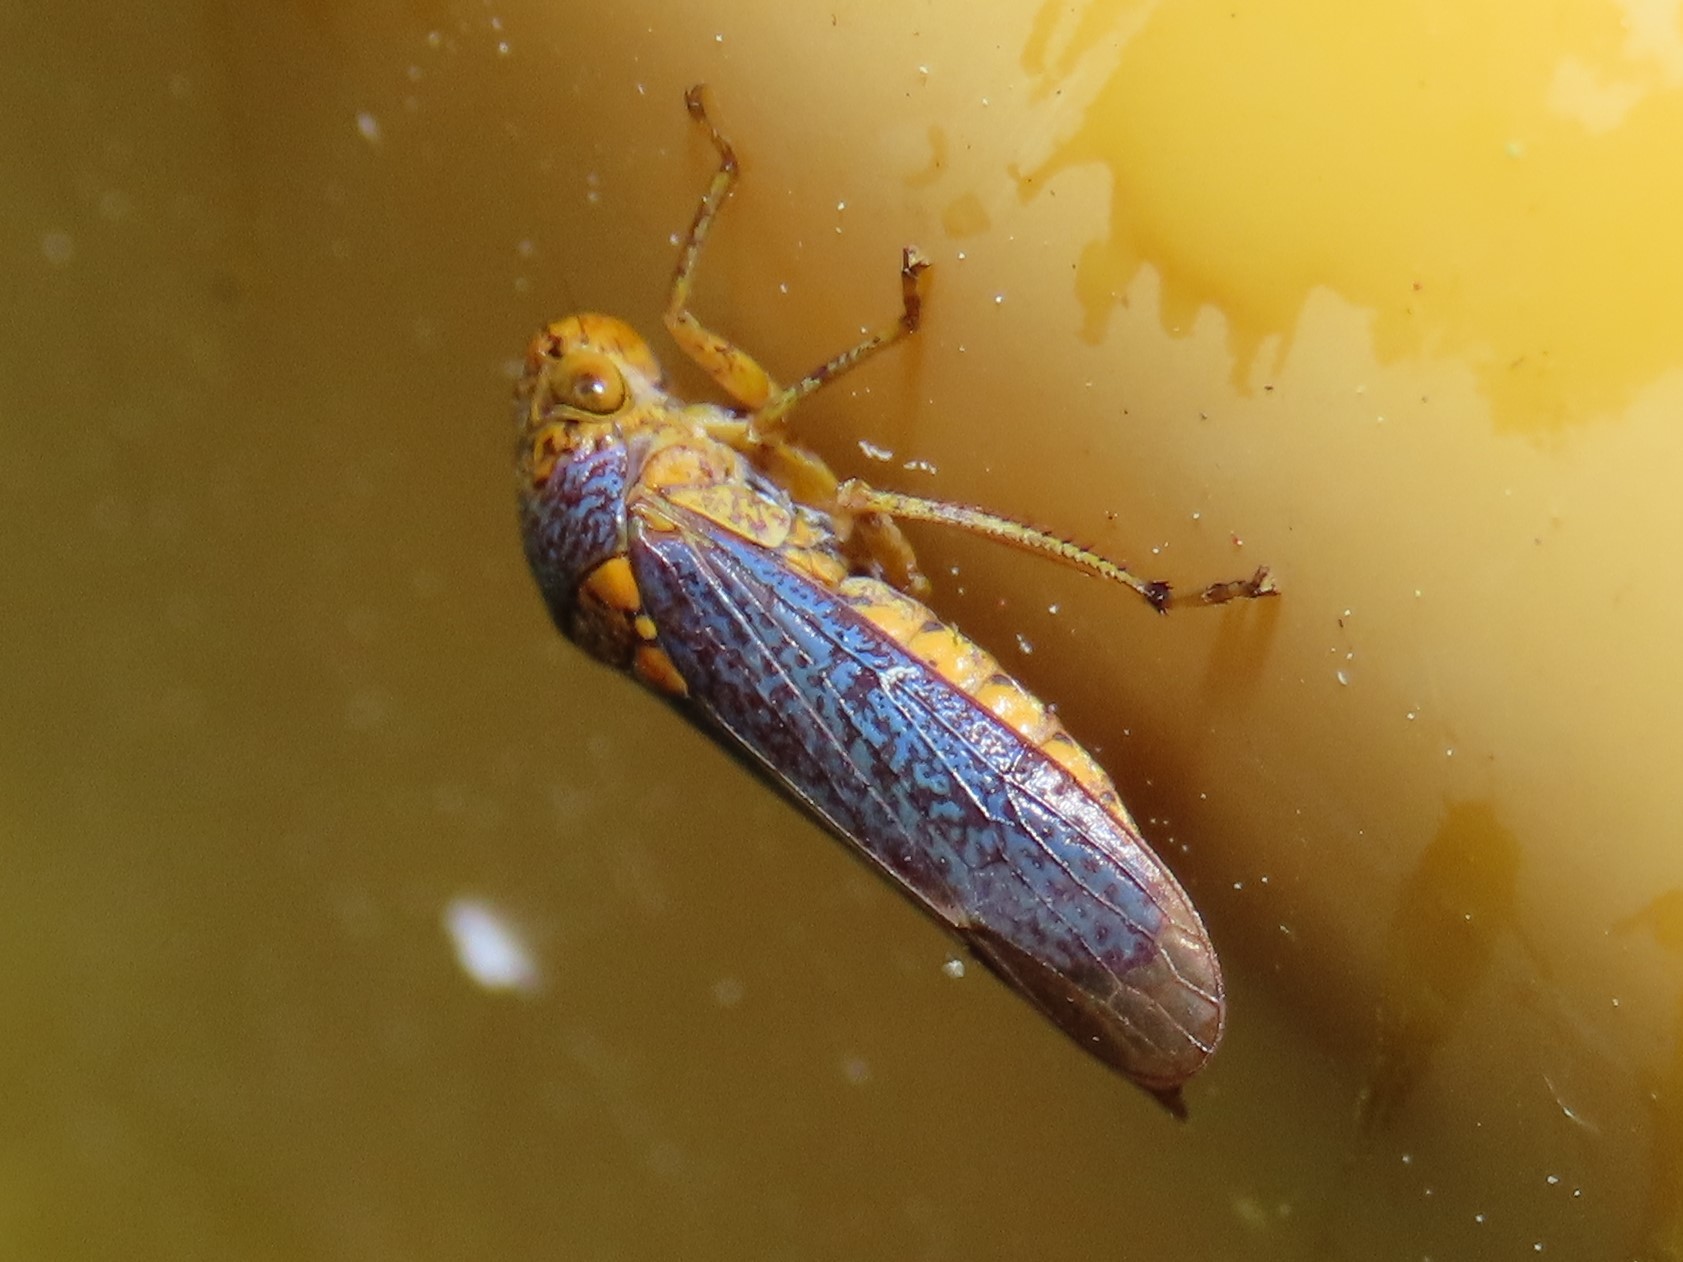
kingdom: Animalia
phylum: Arthropoda
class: Insecta
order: Hemiptera
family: Cicadellidae
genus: Oncometopia
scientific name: Oncometopia orbona
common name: Broad-headed sharpshooter
